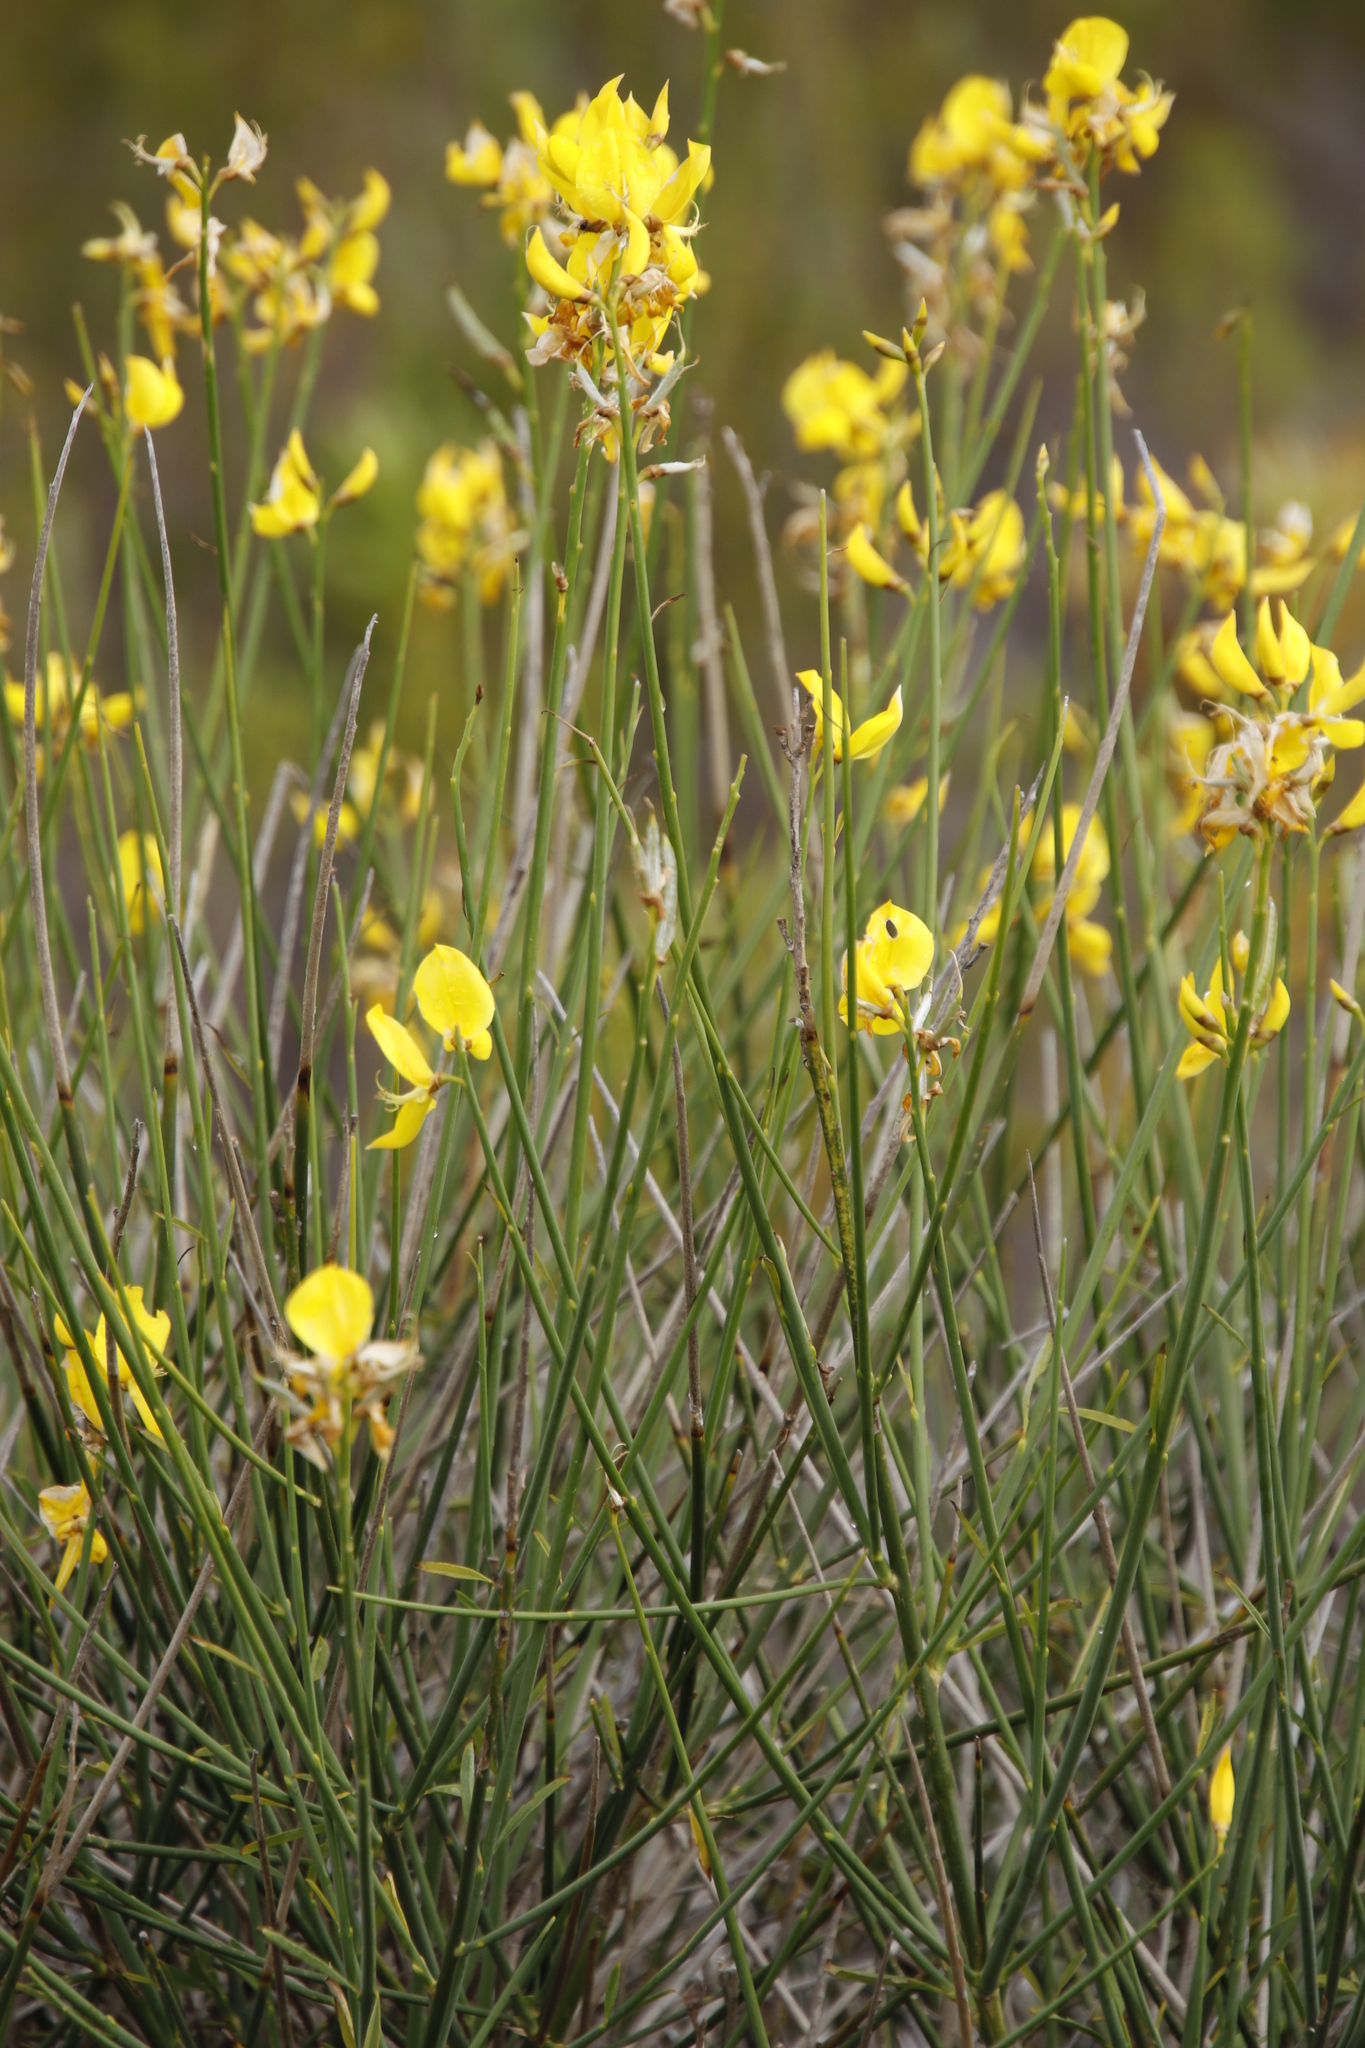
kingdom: Plantae
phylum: Tracheophyta
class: Magnoliopsida
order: Fabales
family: Fabaceae
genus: Spartium
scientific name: Spartium junceum
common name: Spanish broom
